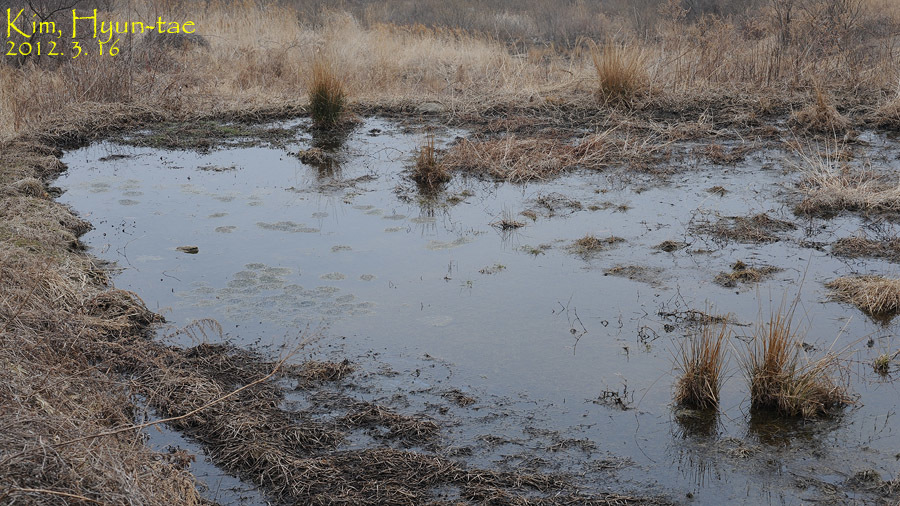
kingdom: Animalia
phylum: Chordata
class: Amphibia
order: Anura
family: Ranidae
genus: Rana
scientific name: Rana uenoi
